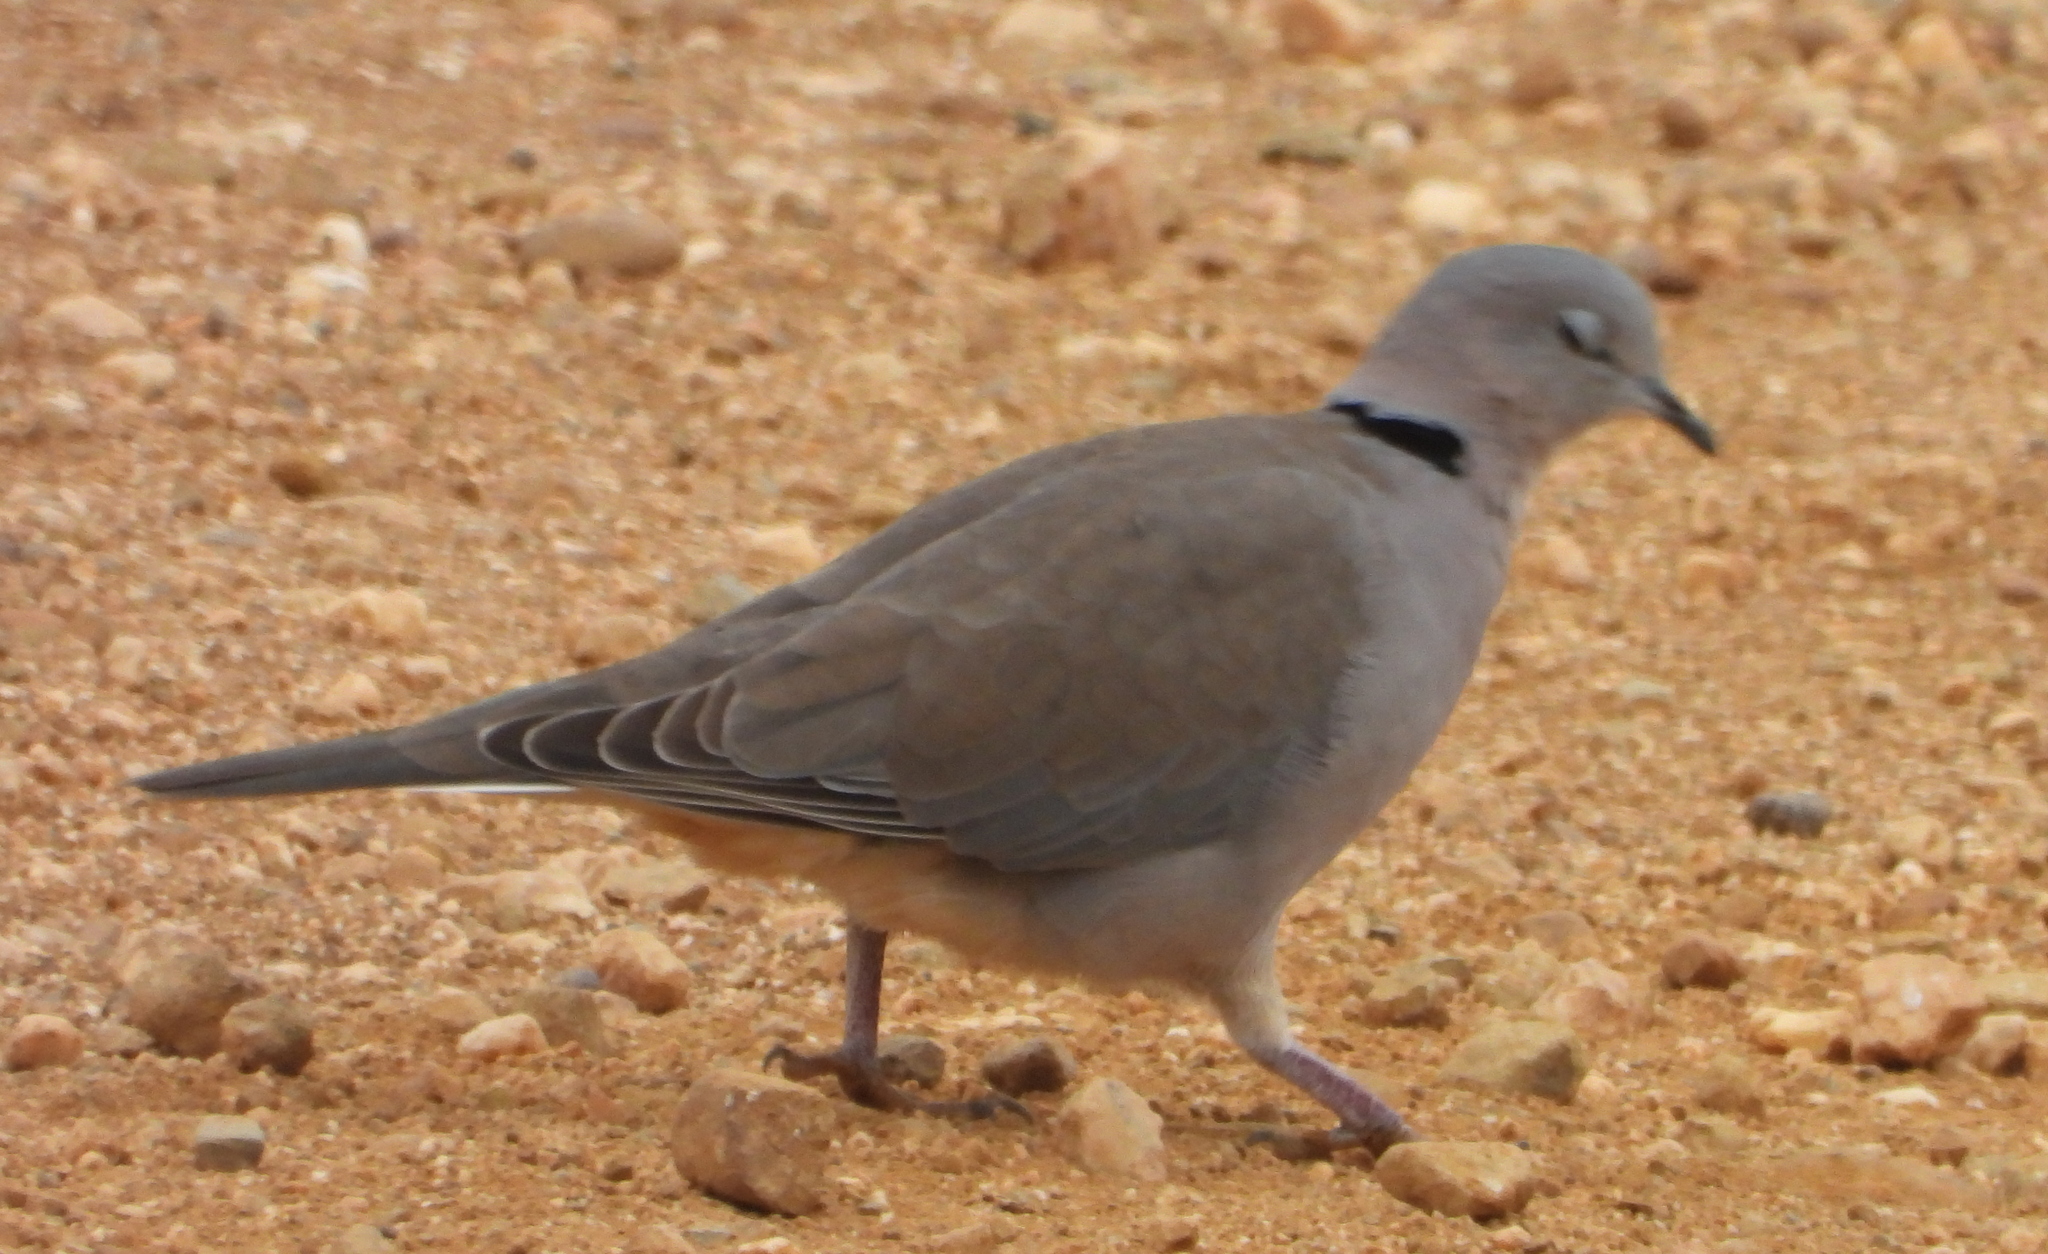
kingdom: Animalia
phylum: Chordata
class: Aves
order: Columbiformes
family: Columbidae
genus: Streptopelia
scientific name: Streptopelia capicola
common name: Ring-necked dove
